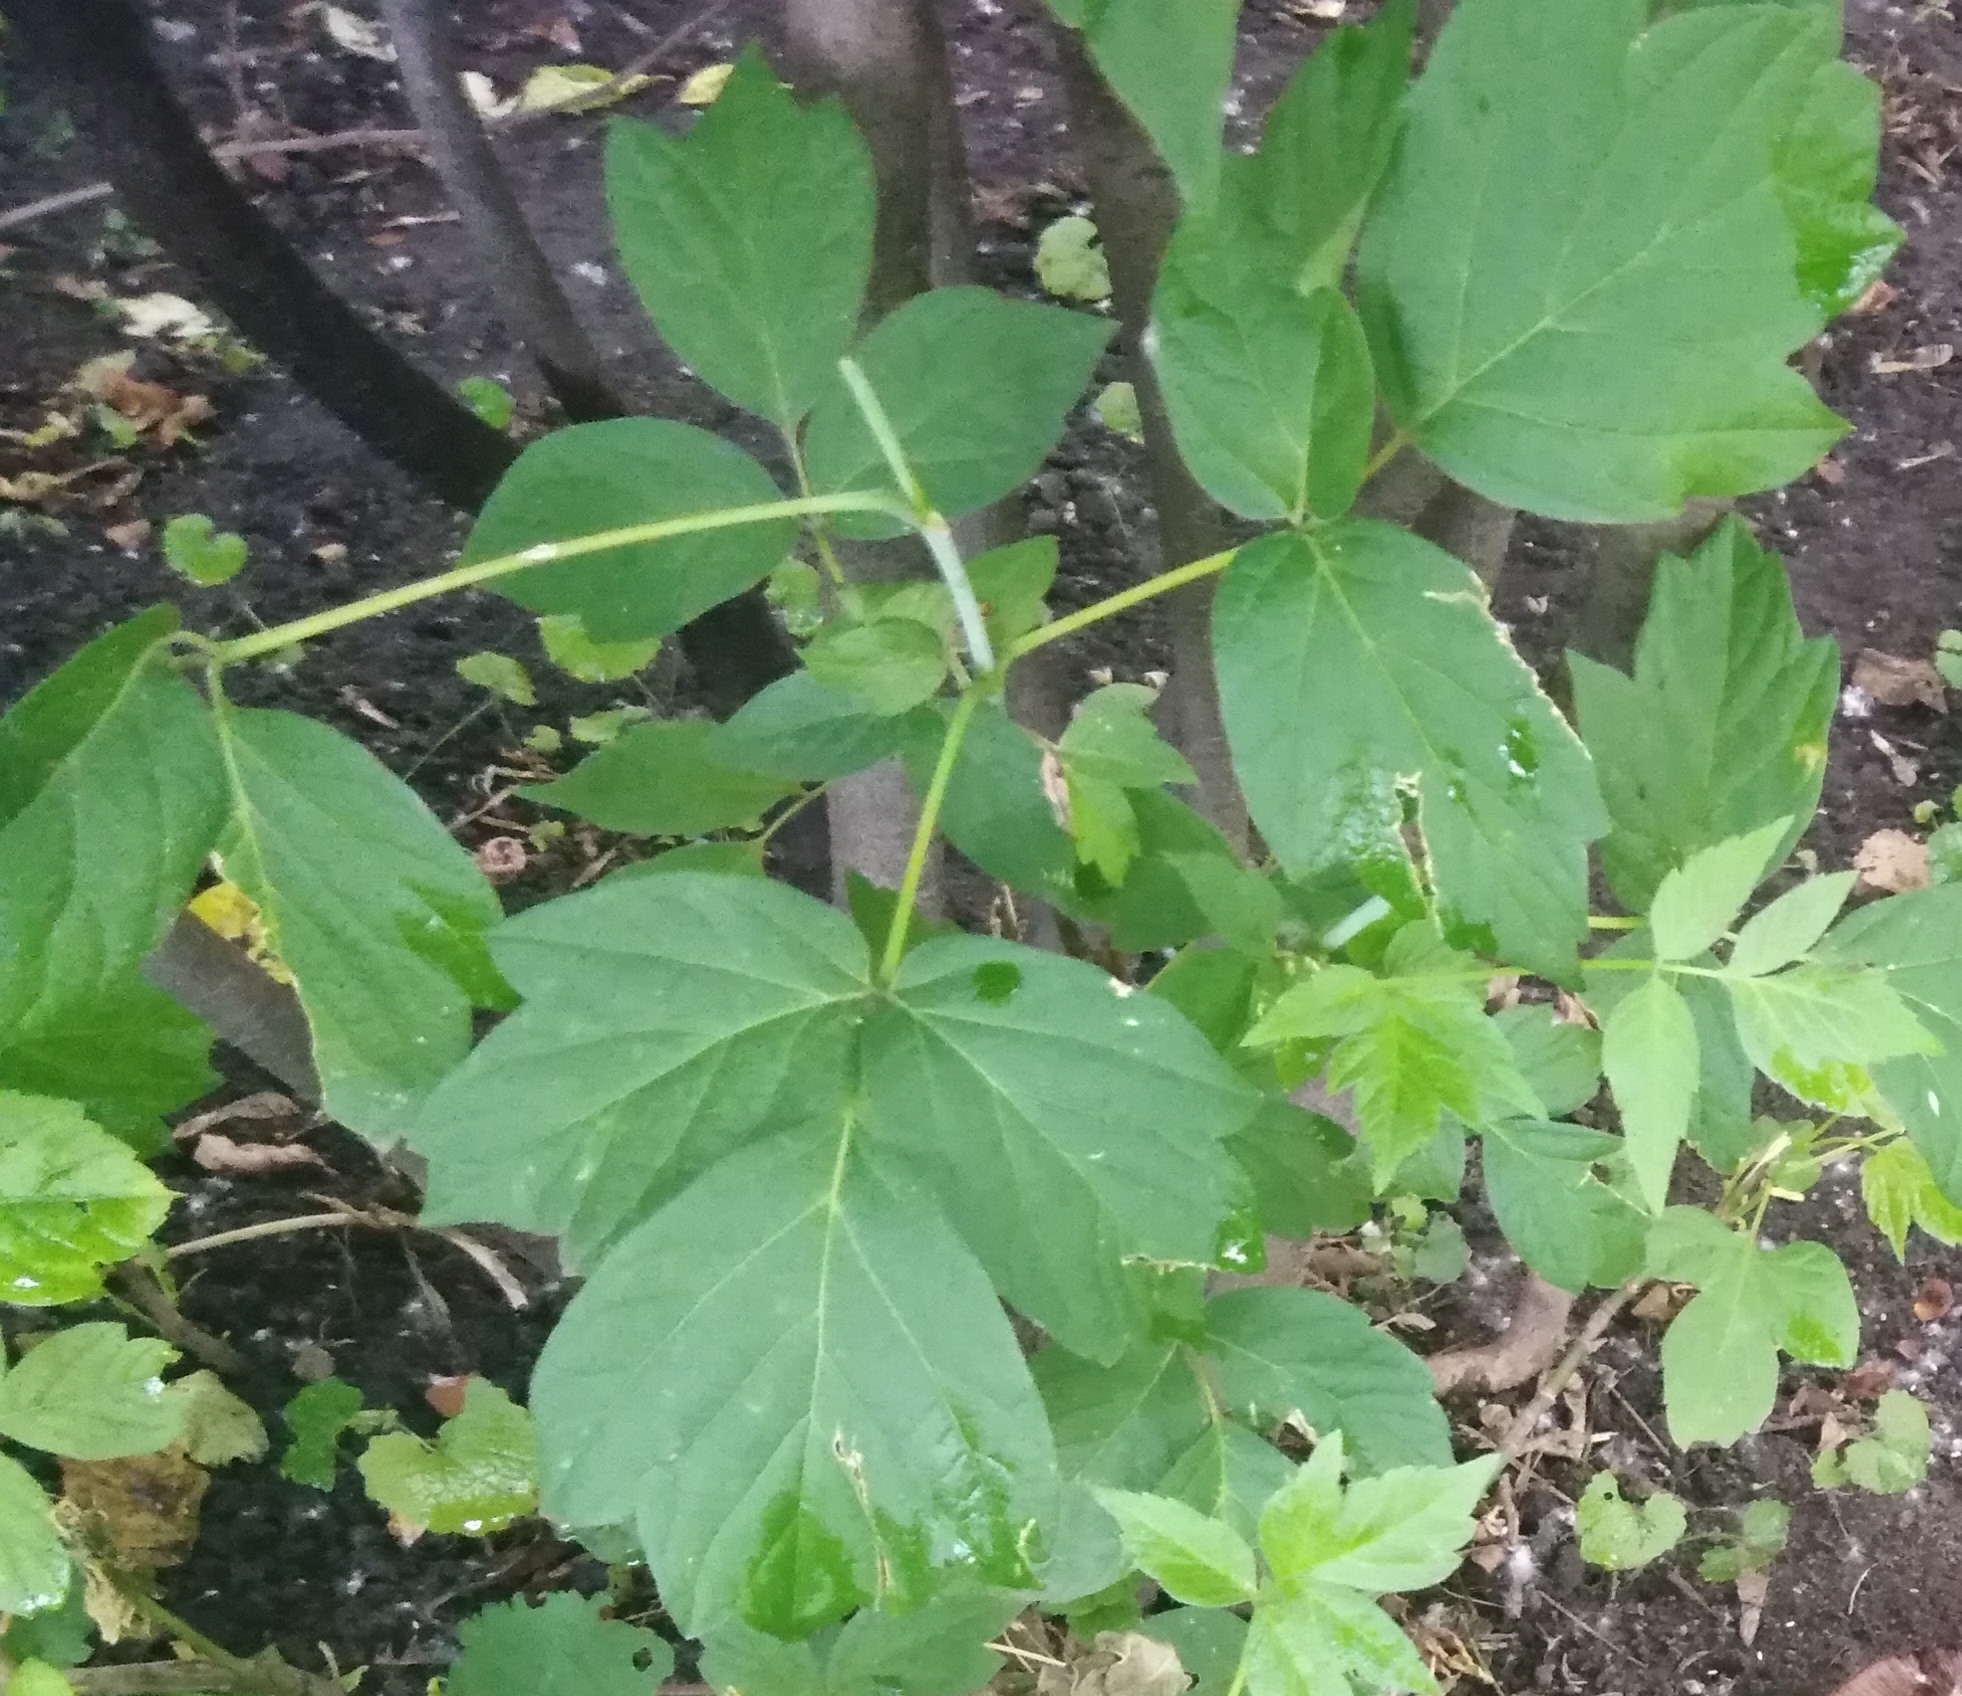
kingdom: Plantae
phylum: Tracheophyta
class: Magnoliopsida
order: Sapindales
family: Sapindaceae
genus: Acer
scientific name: Acer negundo
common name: Ashleaf maple
